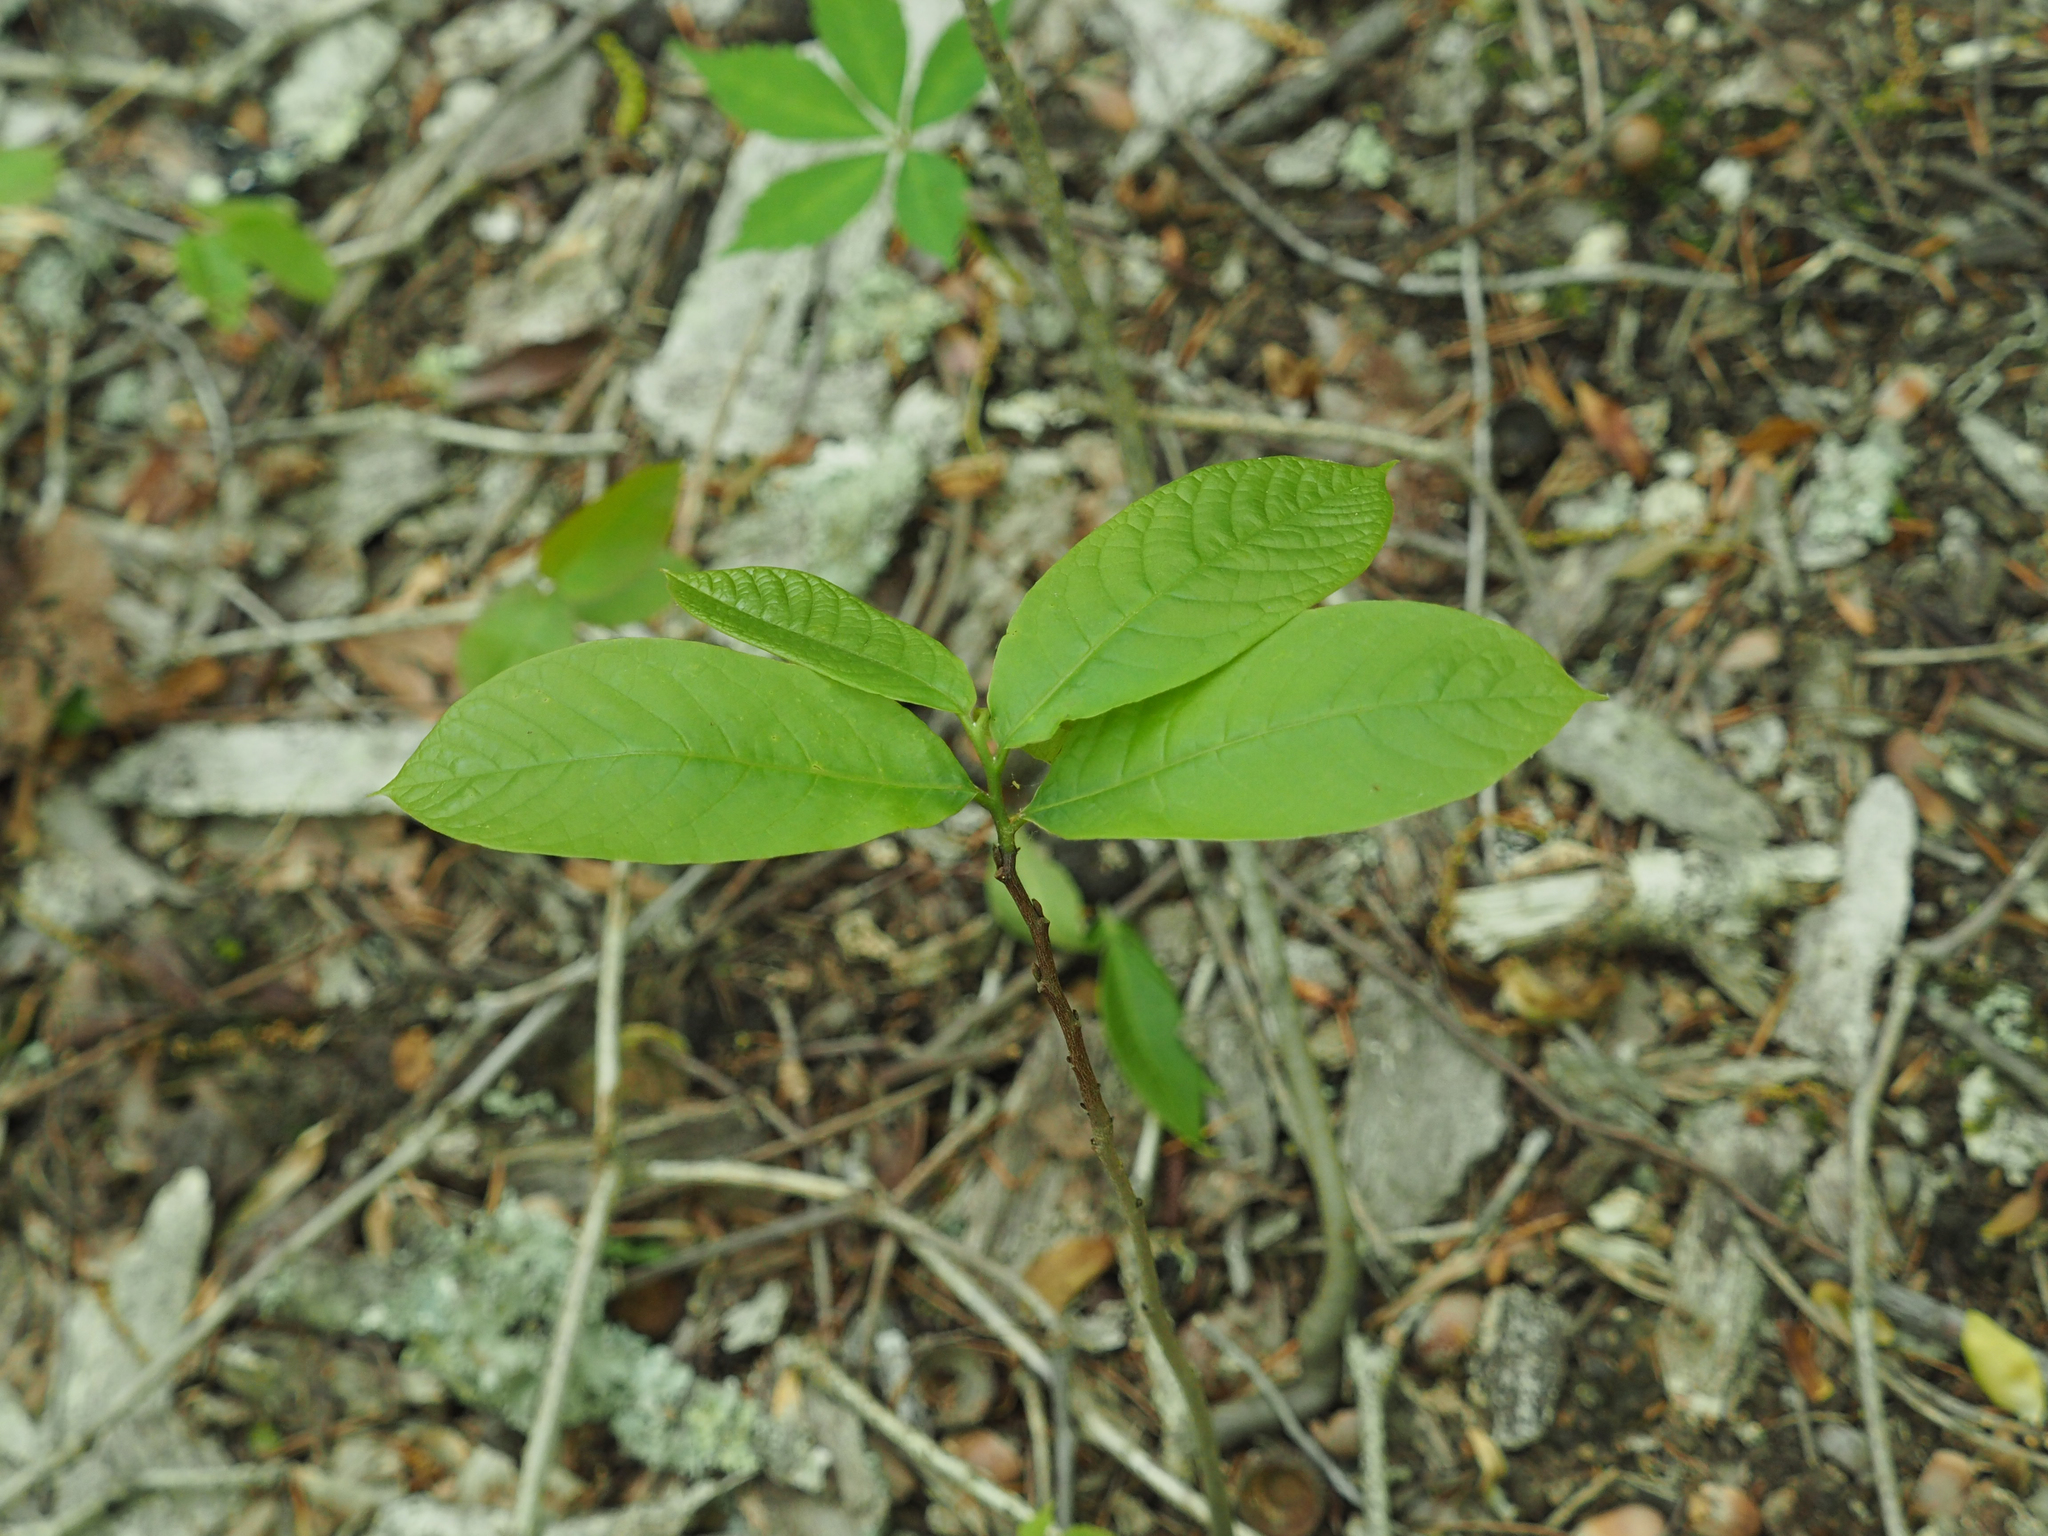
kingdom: Plantae
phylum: Tracheophyta
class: Magnoliopsida
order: Magnoliales
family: Annonaceae
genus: Asimina
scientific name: Asimina triloba
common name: Dog-banana
